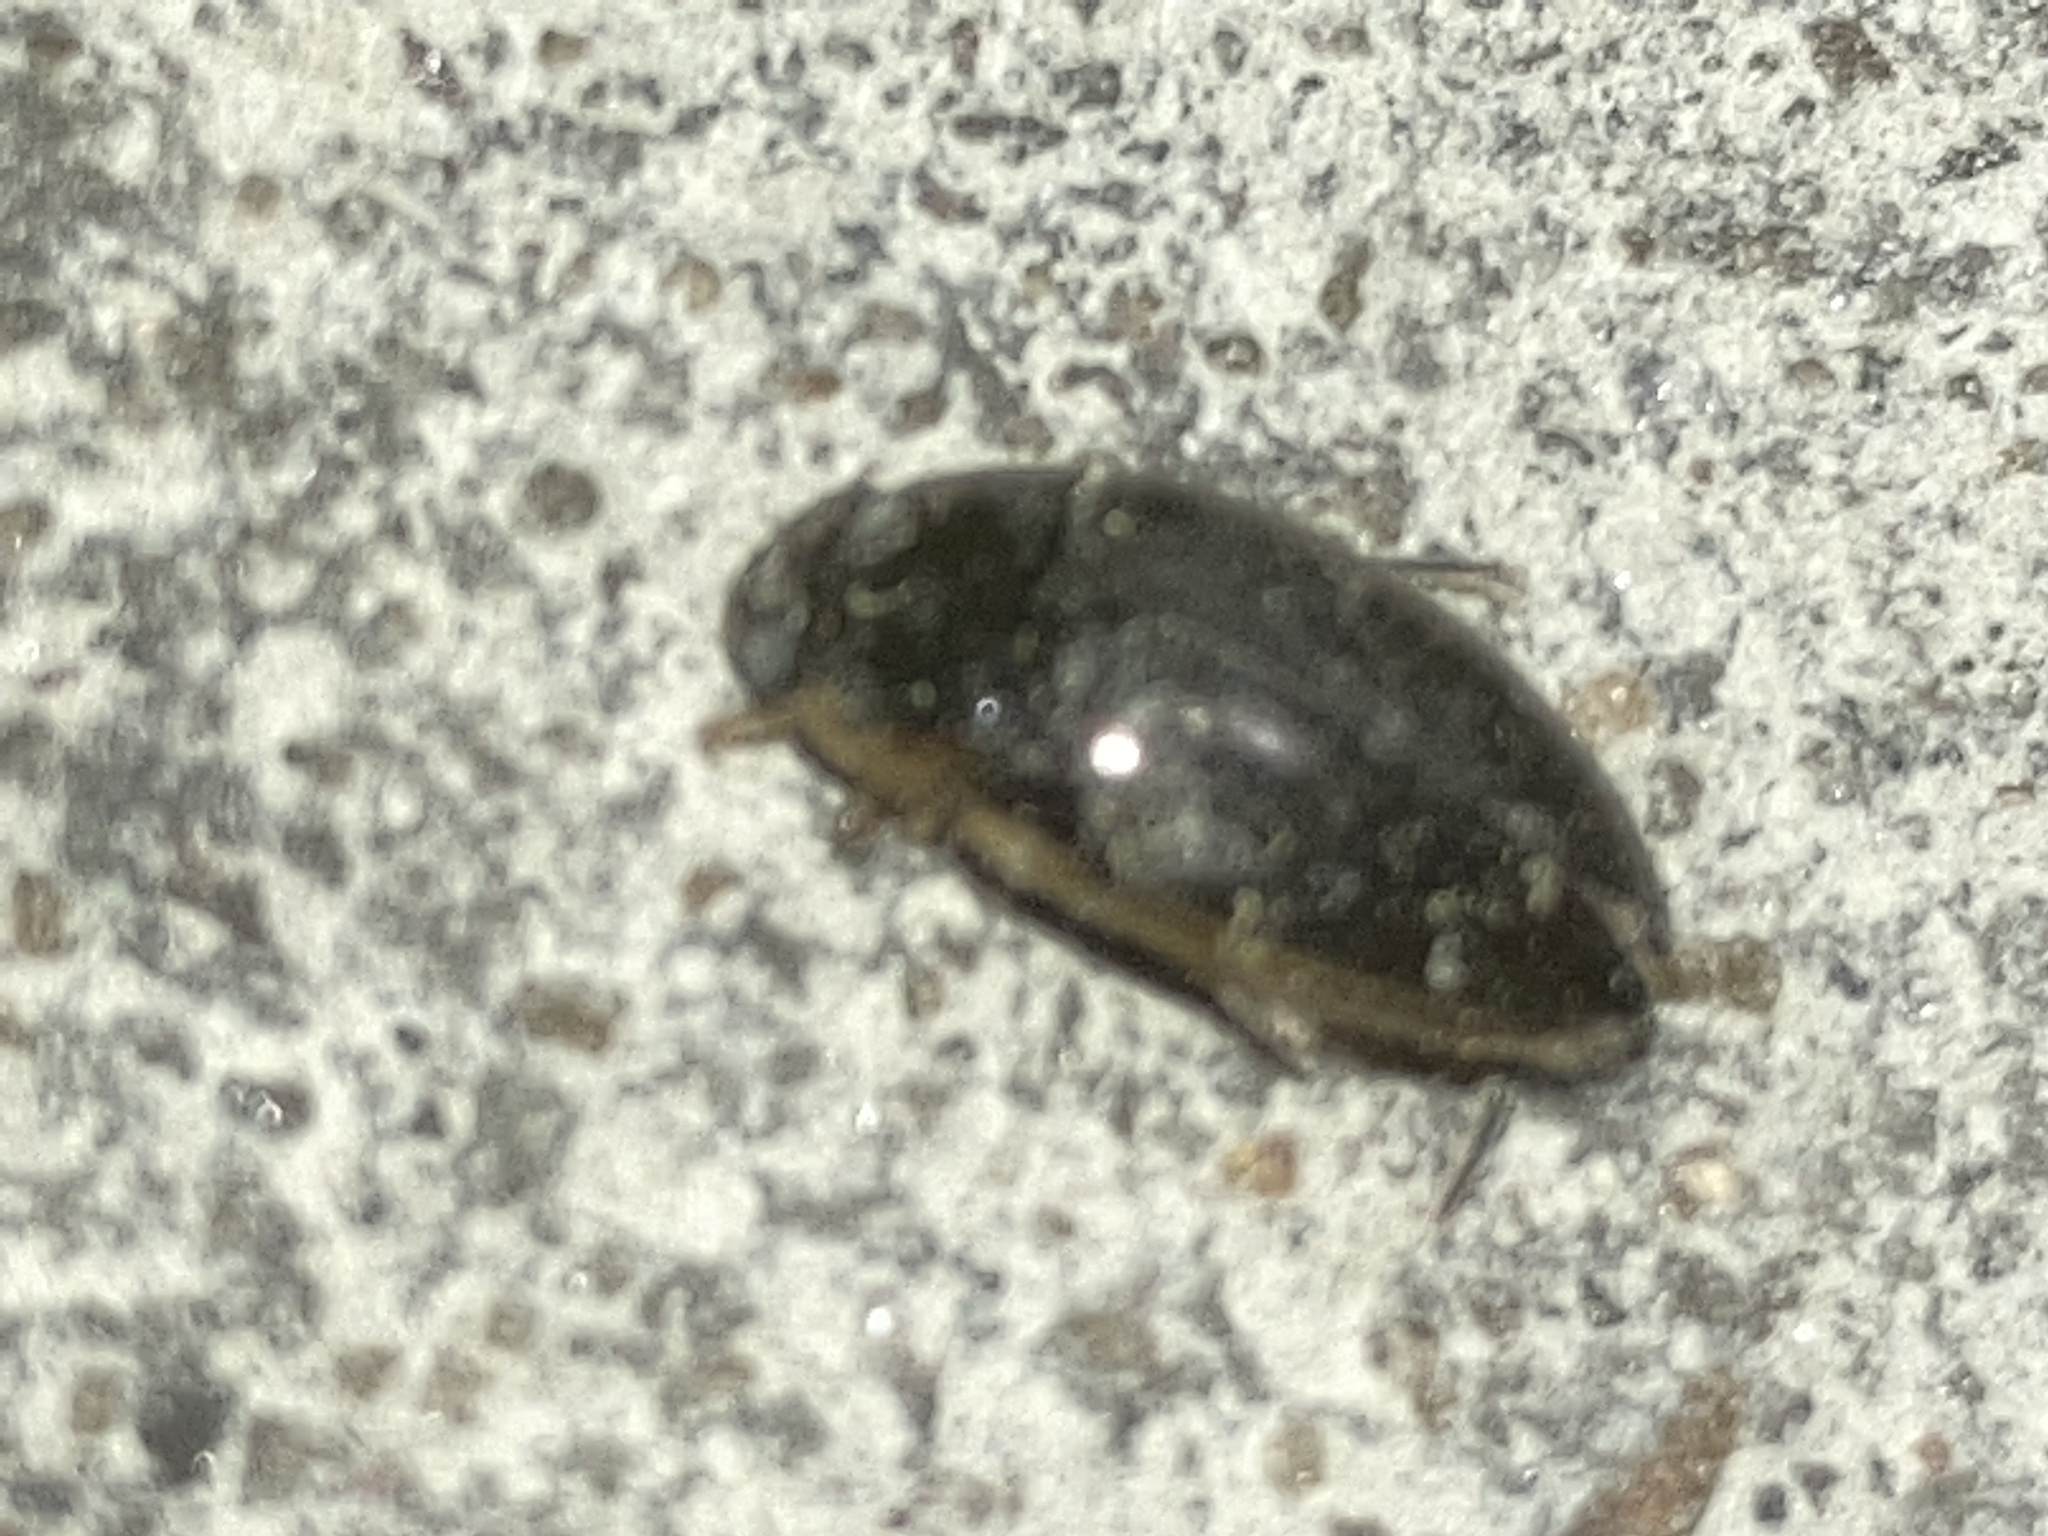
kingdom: Animalia
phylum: Arthropoda
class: Insecta
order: Coleoptera
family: Hydrophilidae
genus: Tropisternus
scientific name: Tropisternus lateralis
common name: Lateral-banded water scavenger beetle
